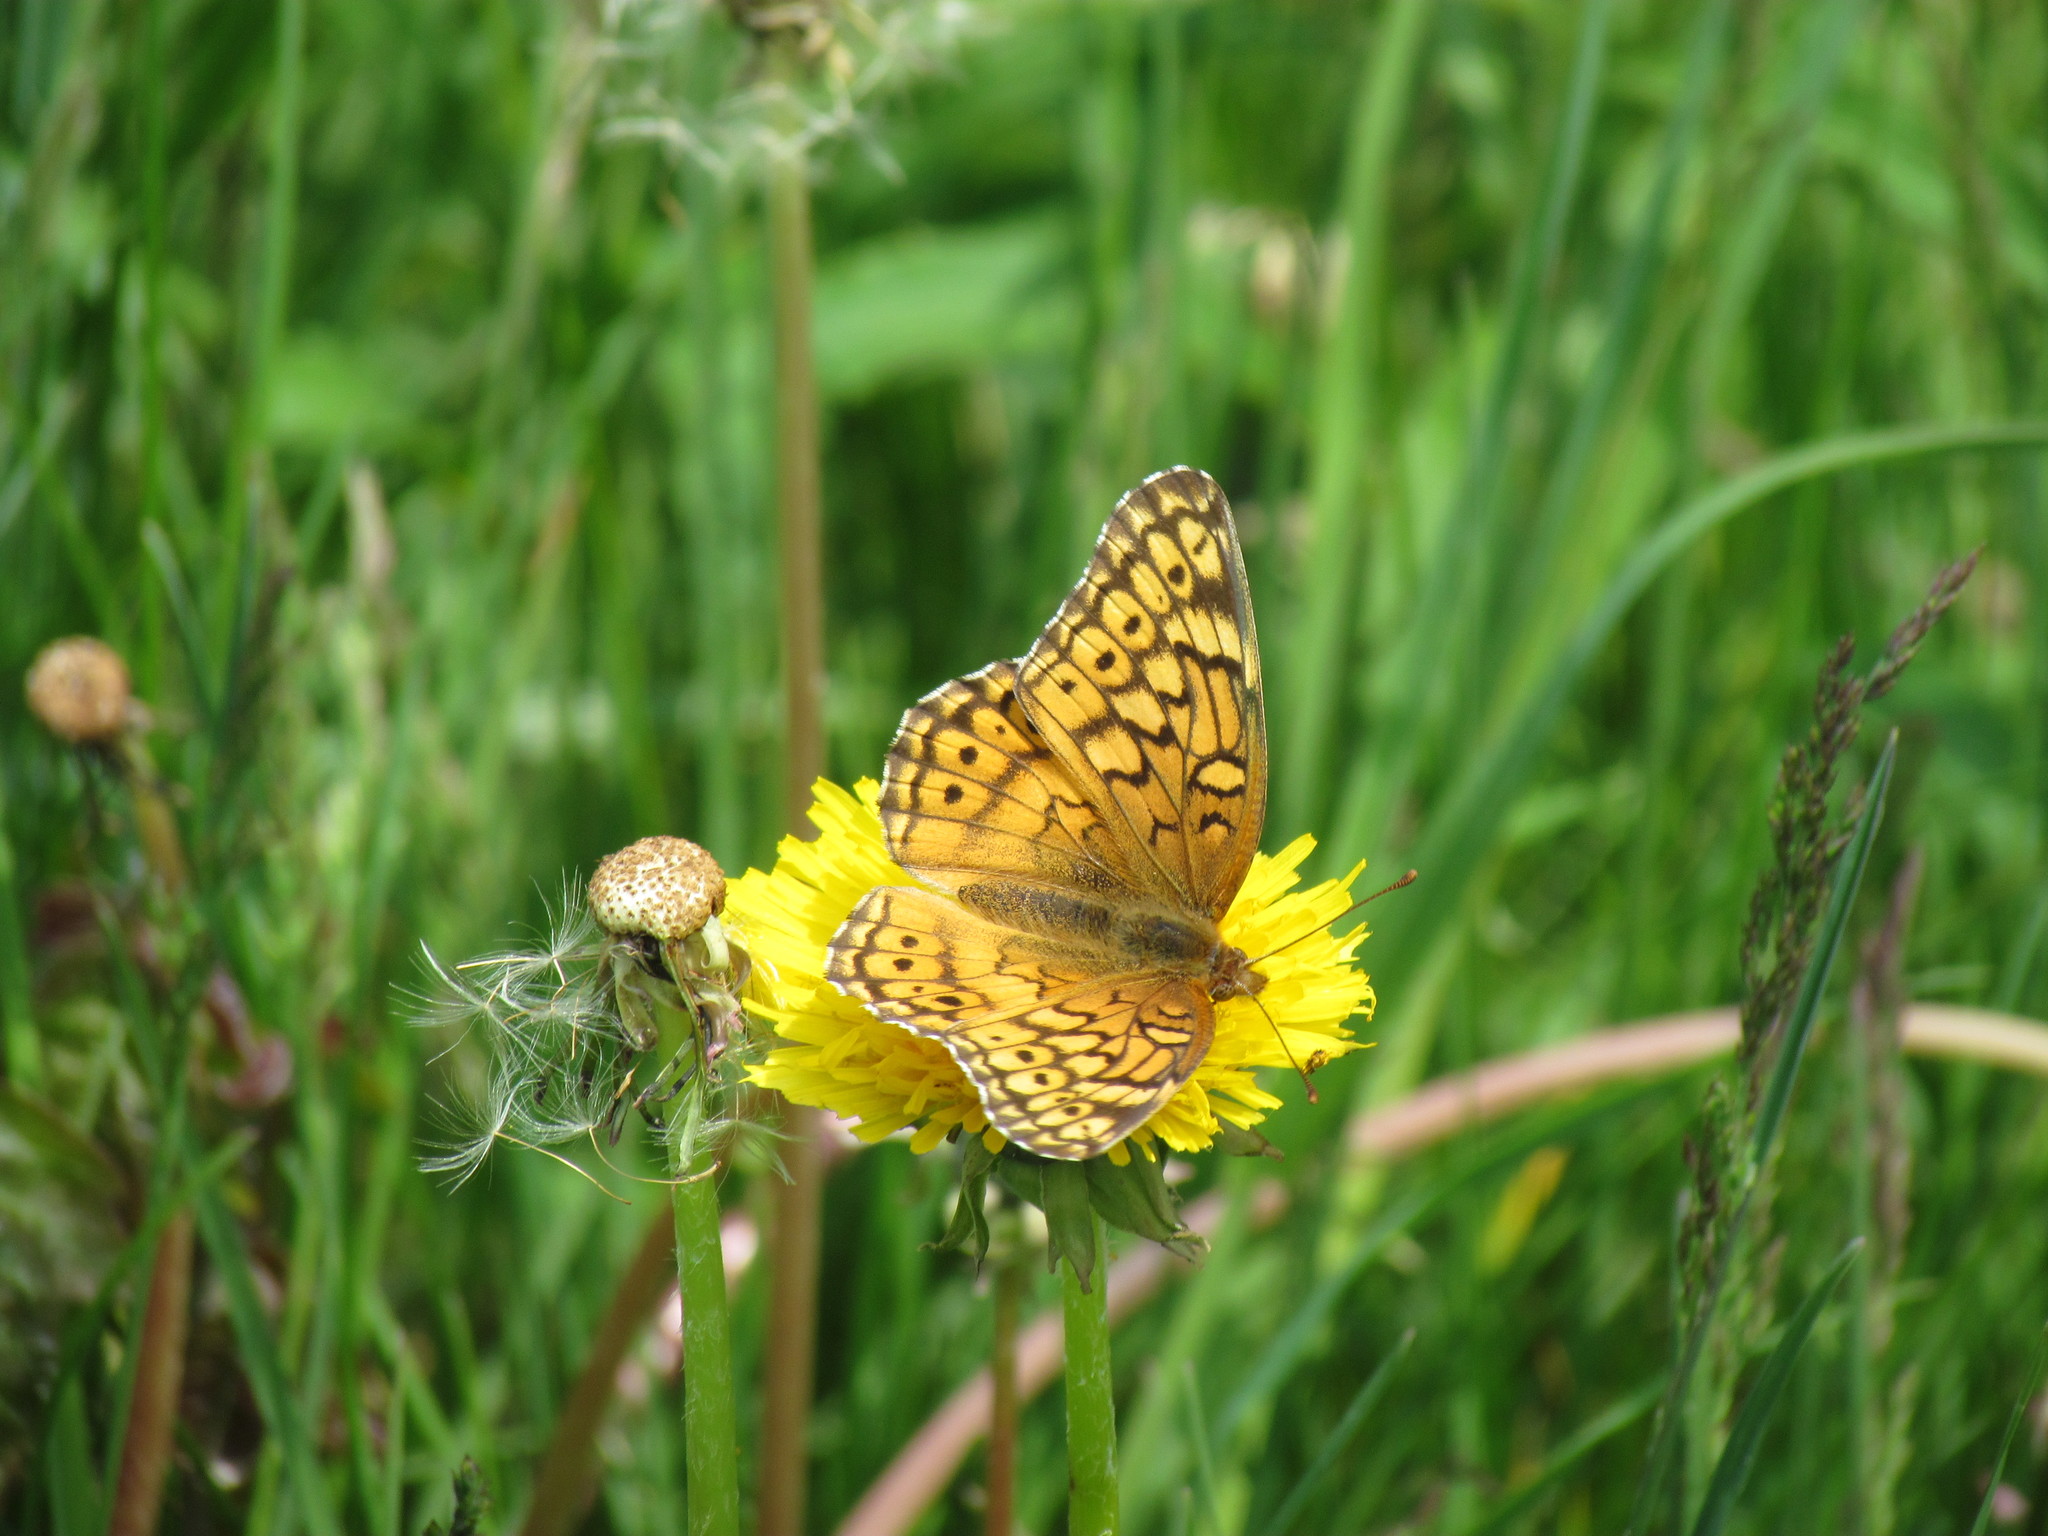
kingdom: Animalia
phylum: Arthropoda
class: Insecta
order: Lepidoptera
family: Nymphalidae
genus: Euptoieta
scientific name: Euptoieta claudia
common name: Variegated fritillary
